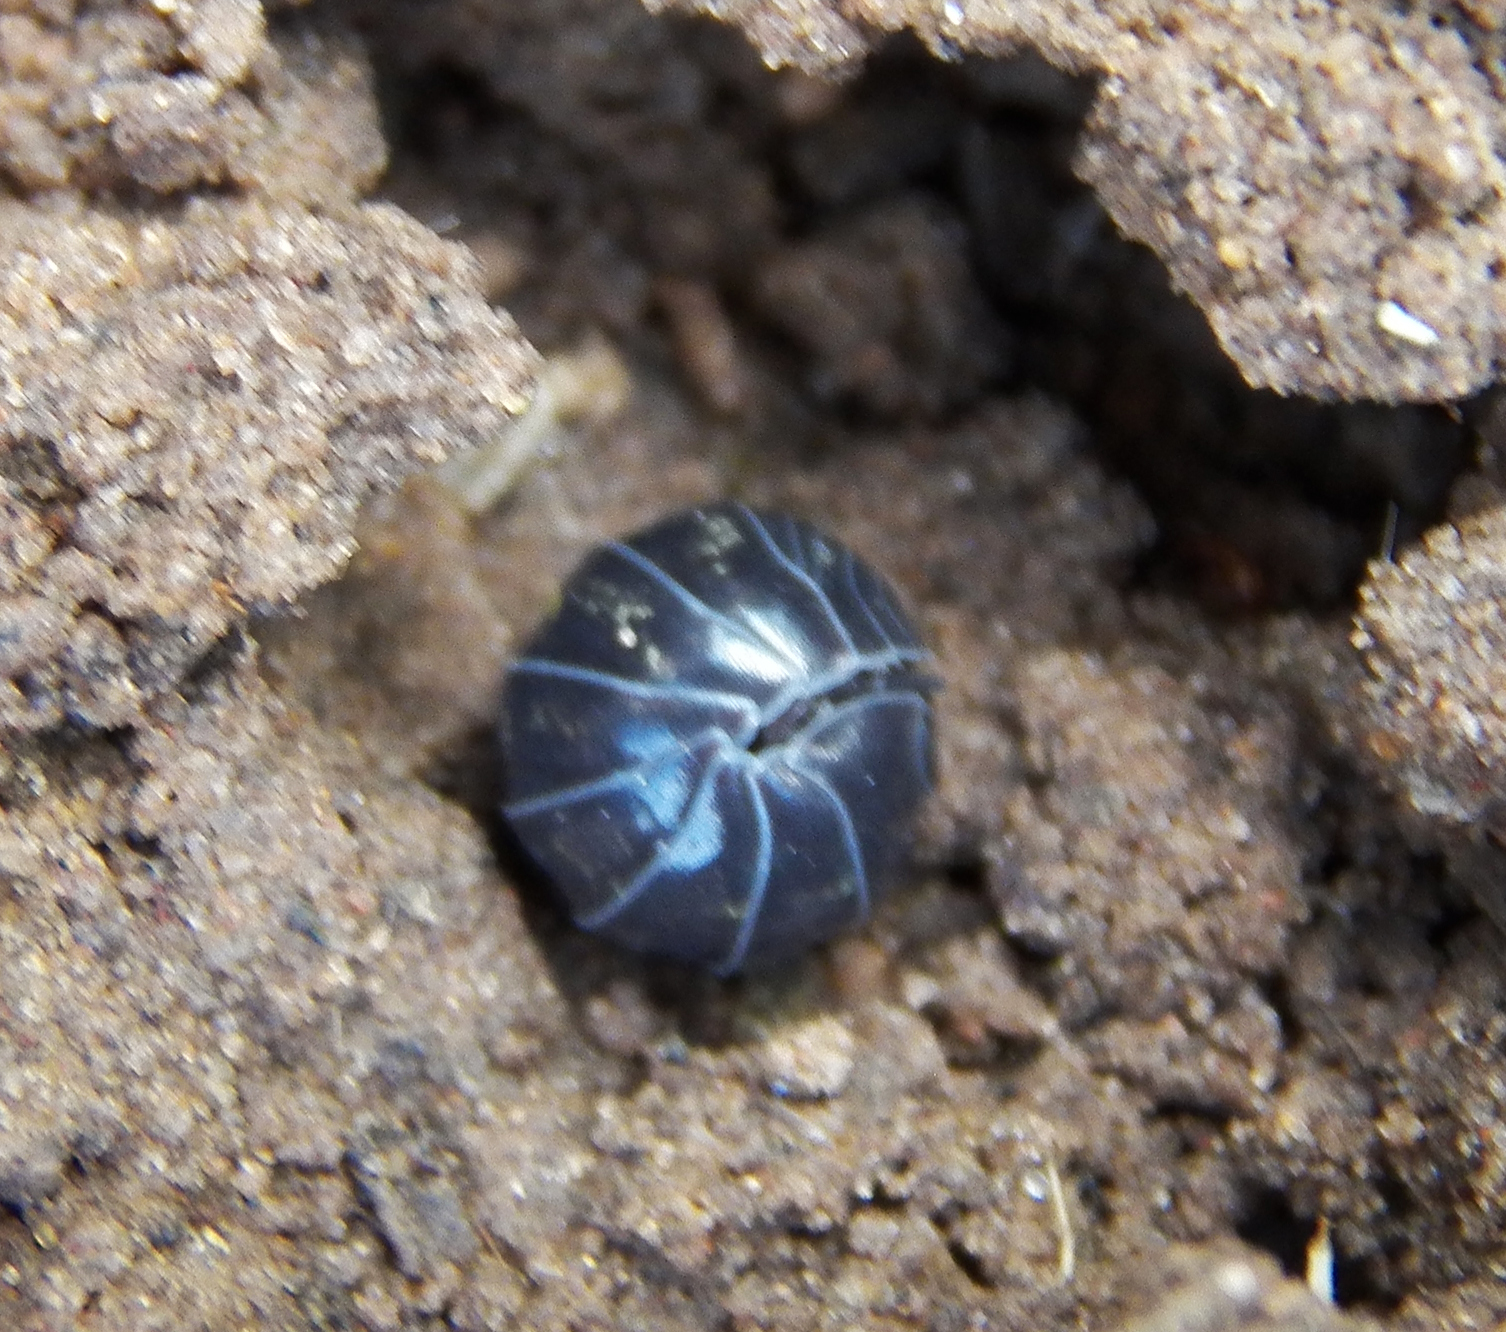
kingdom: Animalia
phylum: Arthropoda
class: Malacostraca
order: Isopoda
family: Armadillidiidae
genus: Armadillidium
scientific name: Armadillidium vulgare
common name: Common pill woodlouse
